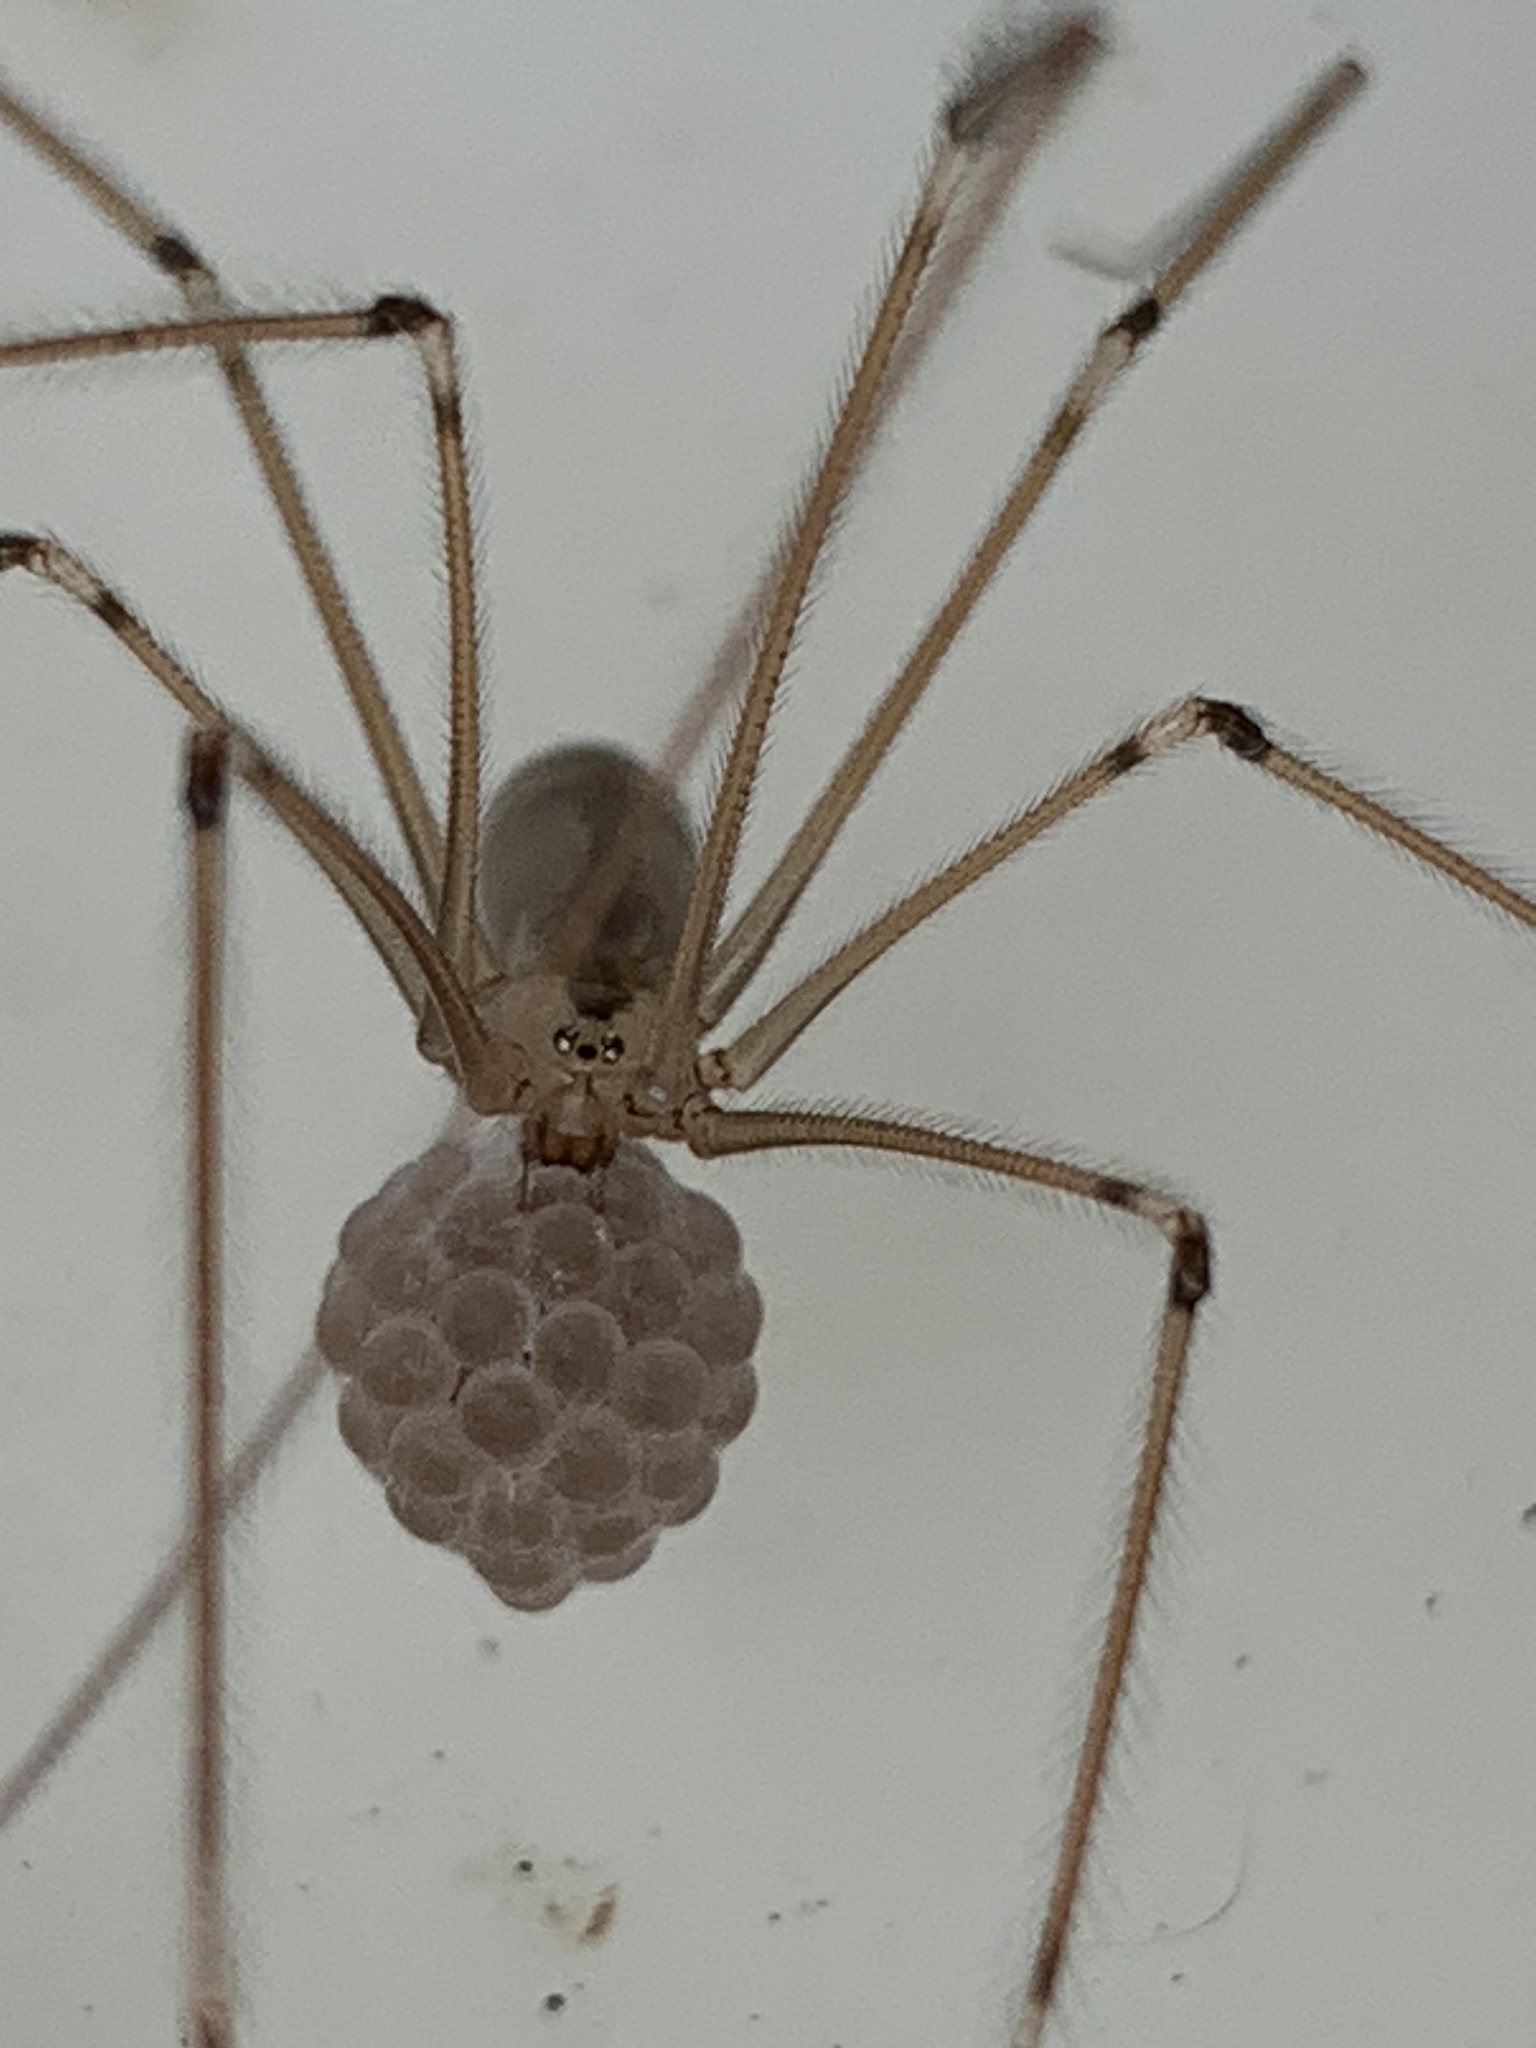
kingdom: Animalia
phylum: Arthropoda
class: Arachnida
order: Araneae
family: Pholcidae
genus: Pholcus
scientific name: Pholcus phalangioides
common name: Longbodied cellar spider
